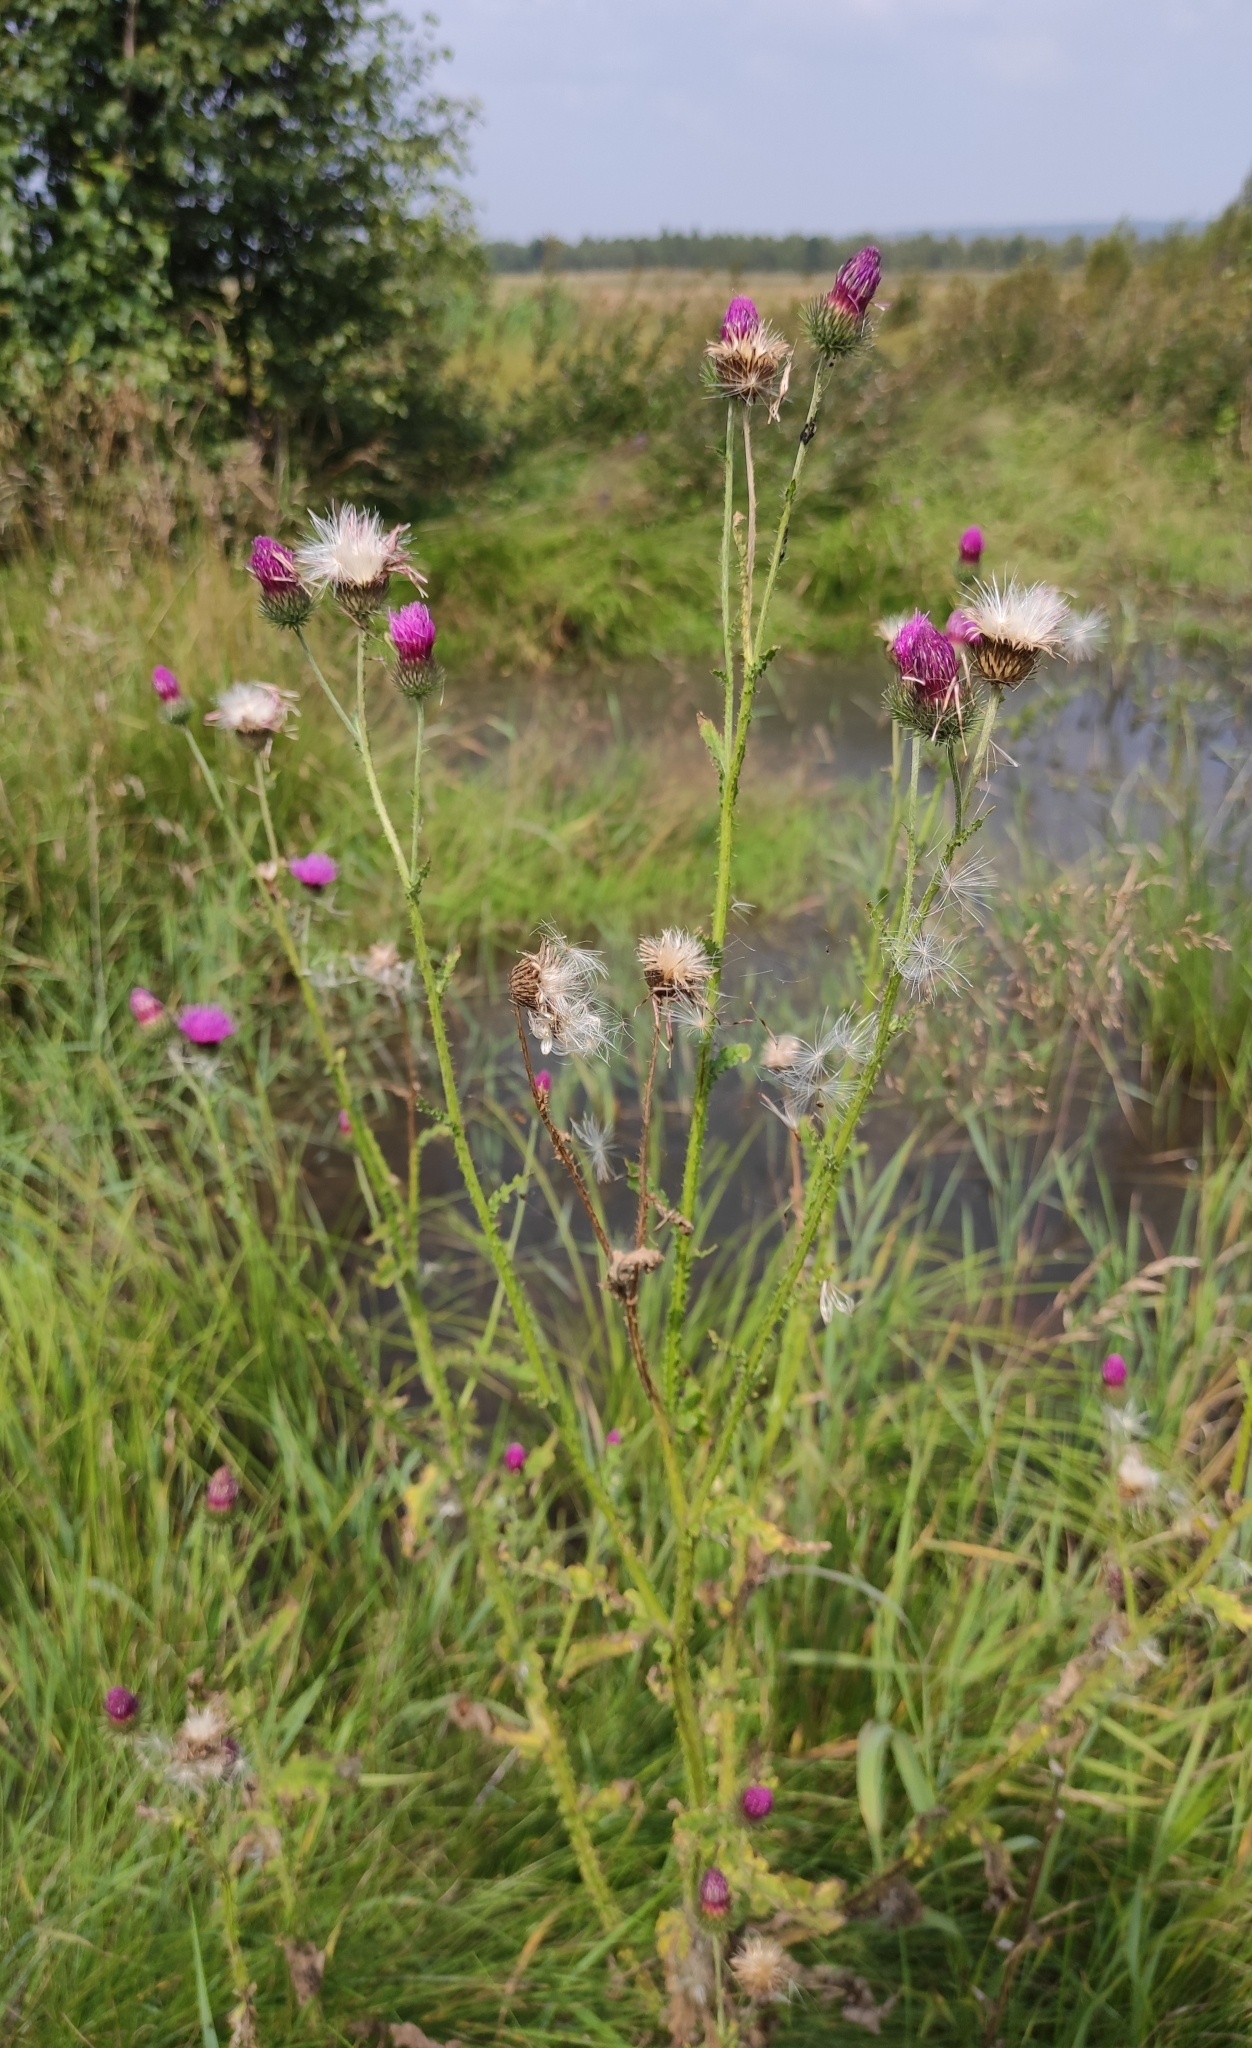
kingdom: Plantae
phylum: Tracheophyta
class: Magnoliopsida
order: Asterales
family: Asteraceae
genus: Carduus
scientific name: Carduus crispus
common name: Welted thistle
